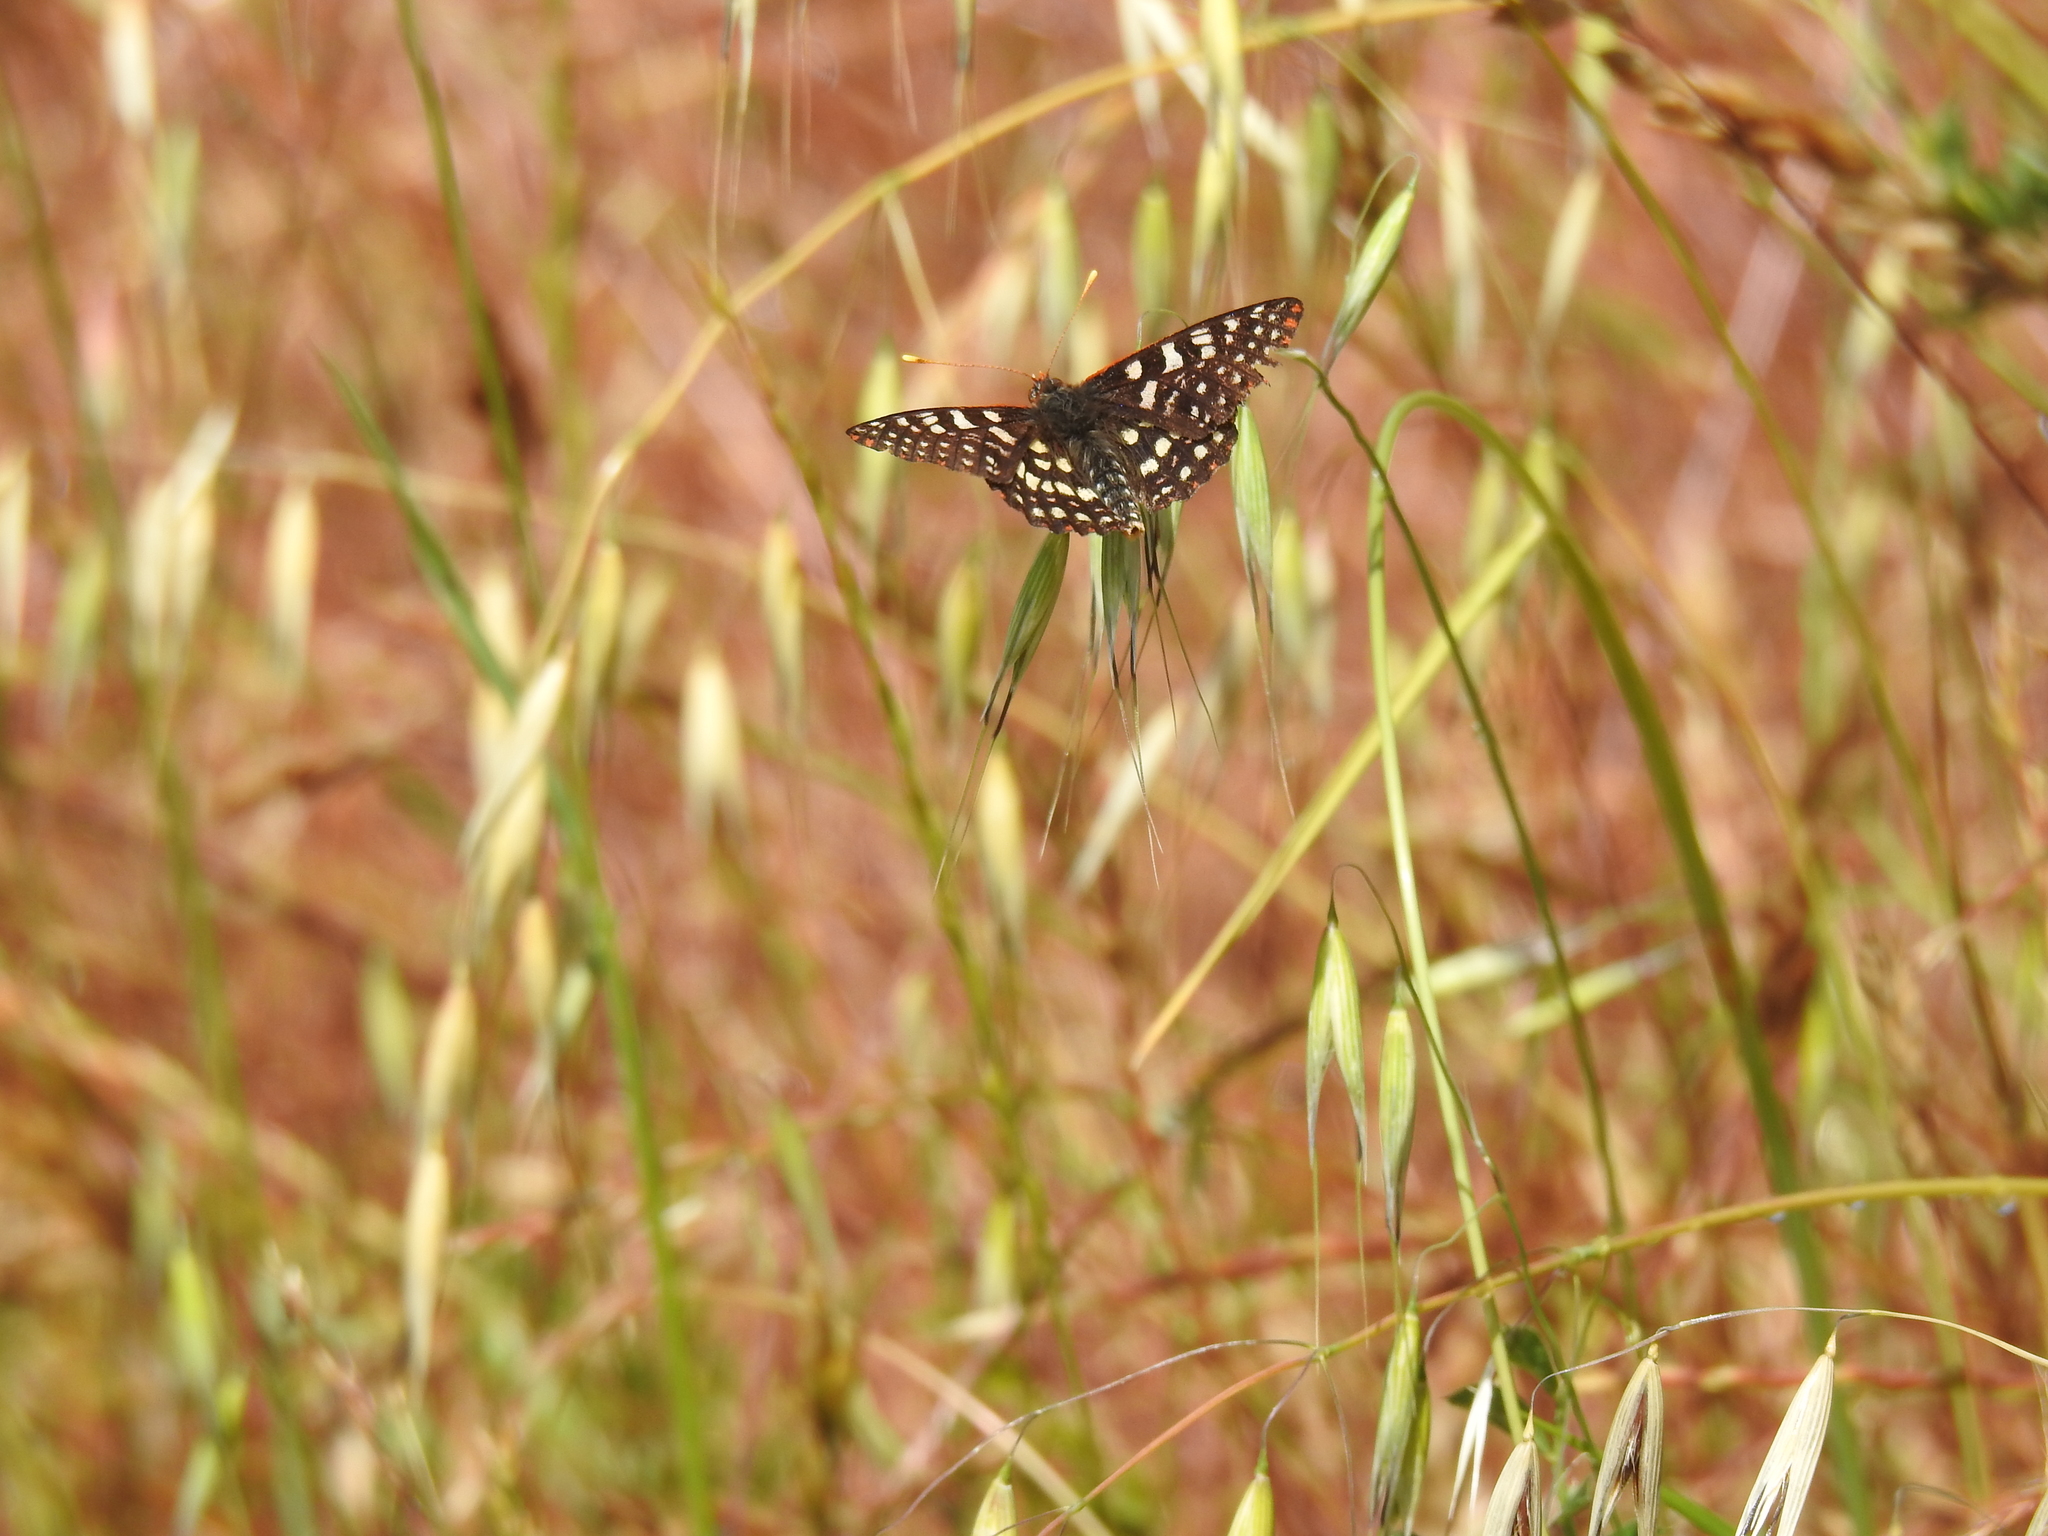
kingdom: Animalia
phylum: Arthropoda
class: Insecta
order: Lepidoptera
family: Nymphalidae
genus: Occidryas
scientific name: Occidryas chalcedona
